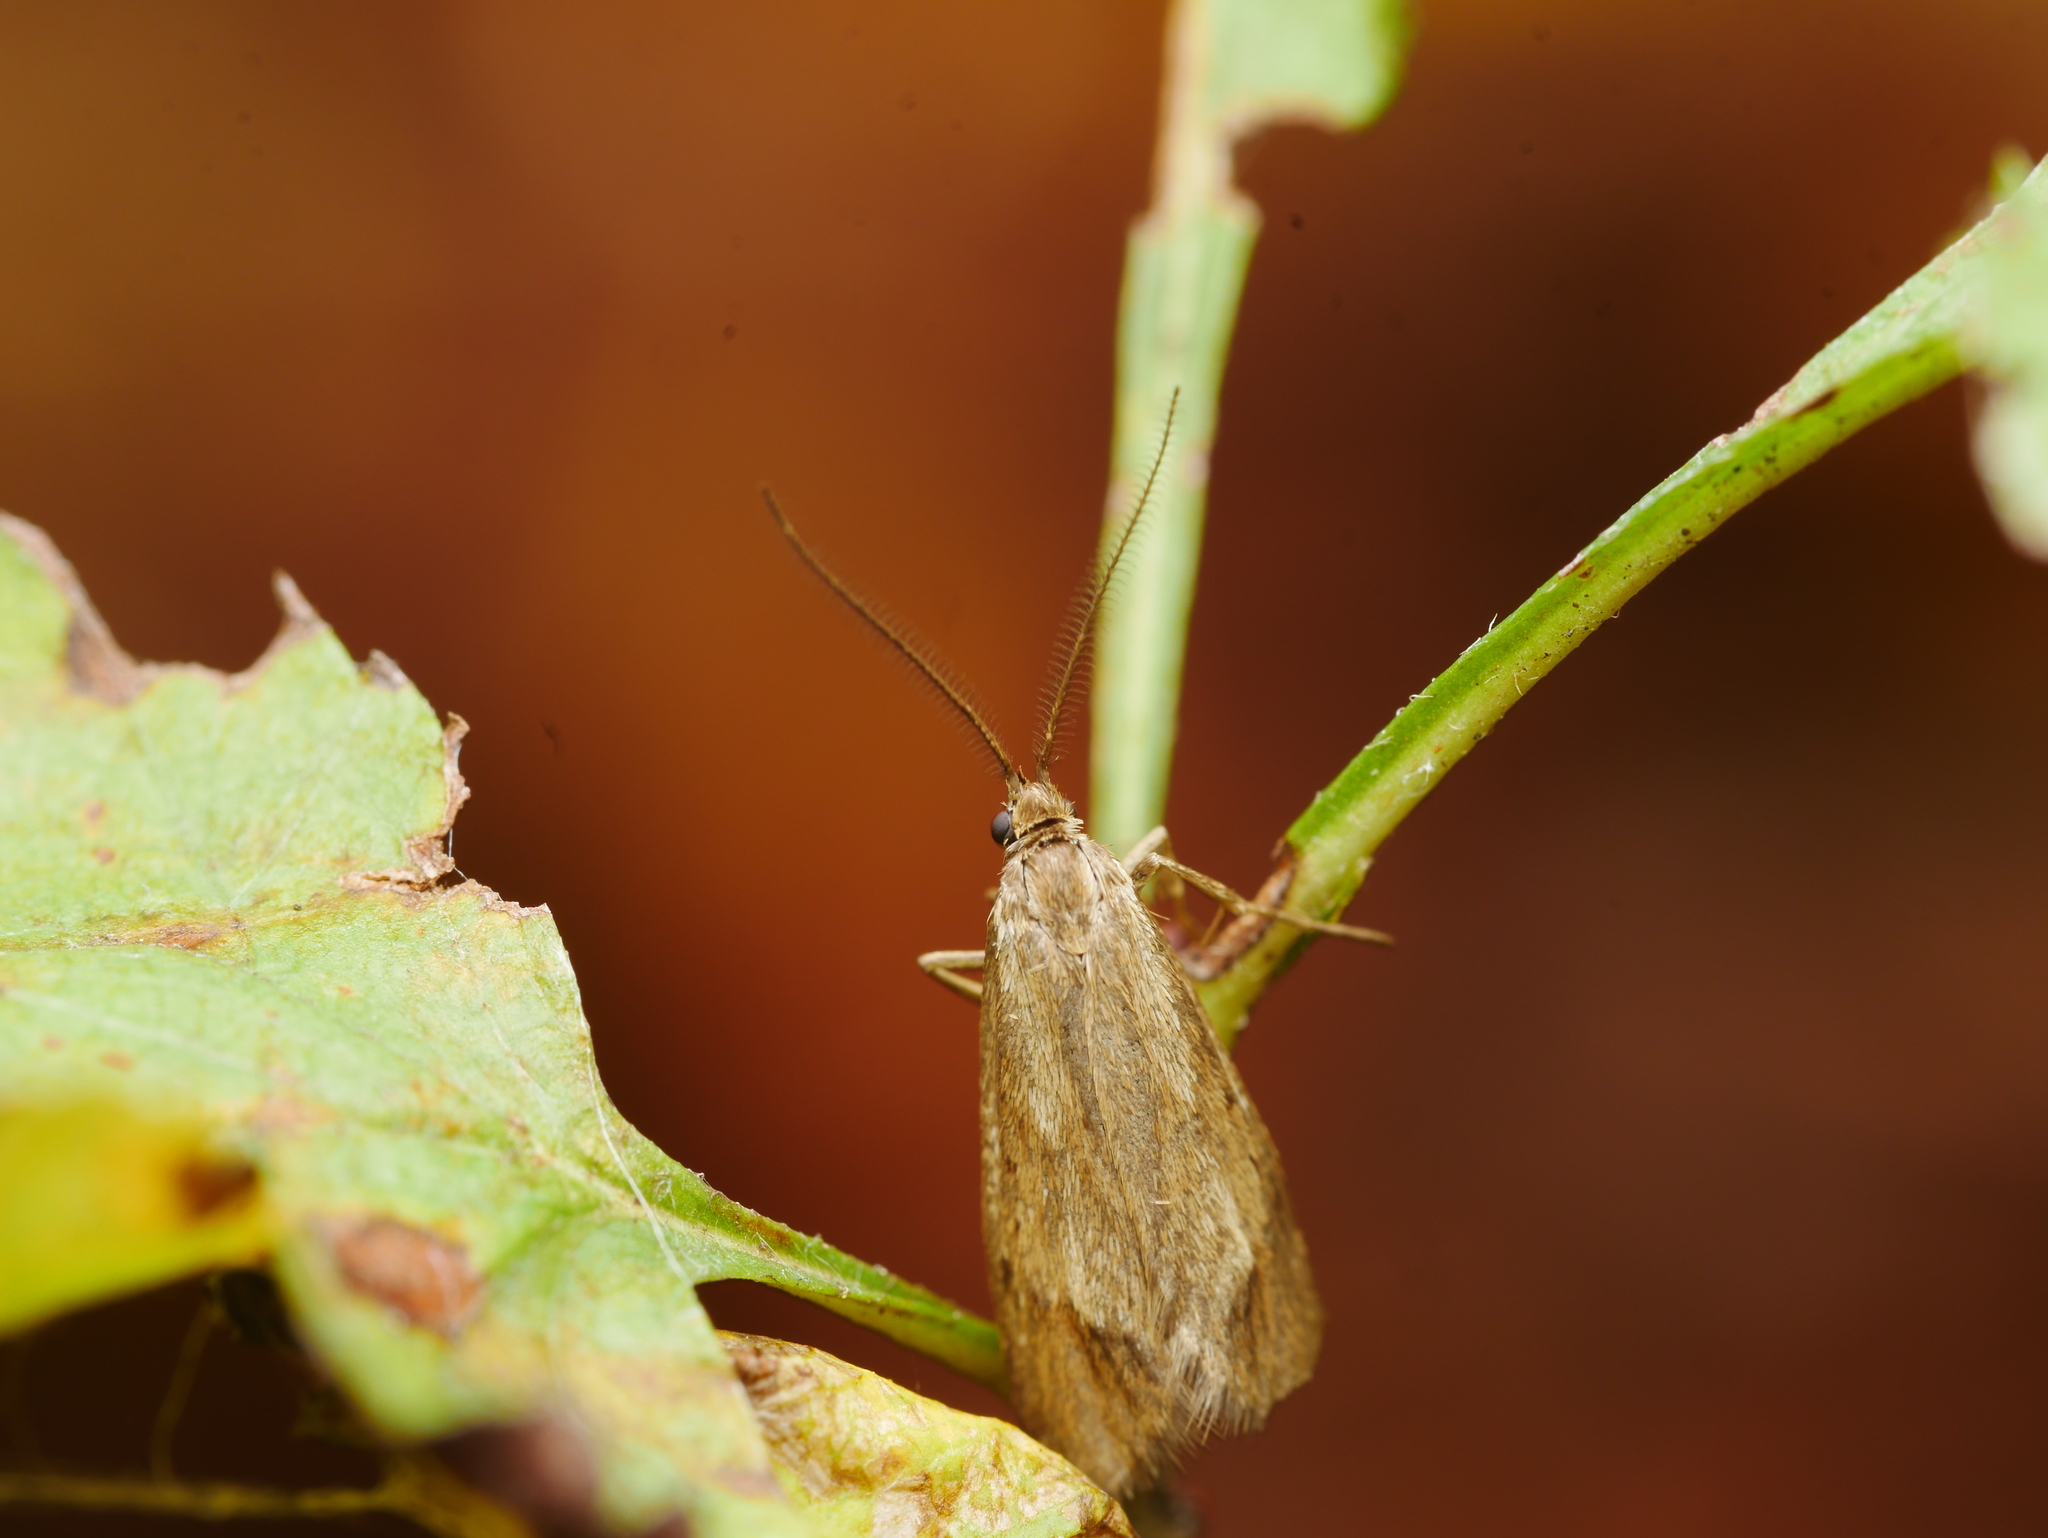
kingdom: Animalia
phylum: Arthropoda
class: Insecta
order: Lepidoptera
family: Lypusidae
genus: Diurnea
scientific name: Diurnea lipsiella
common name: November tubic
